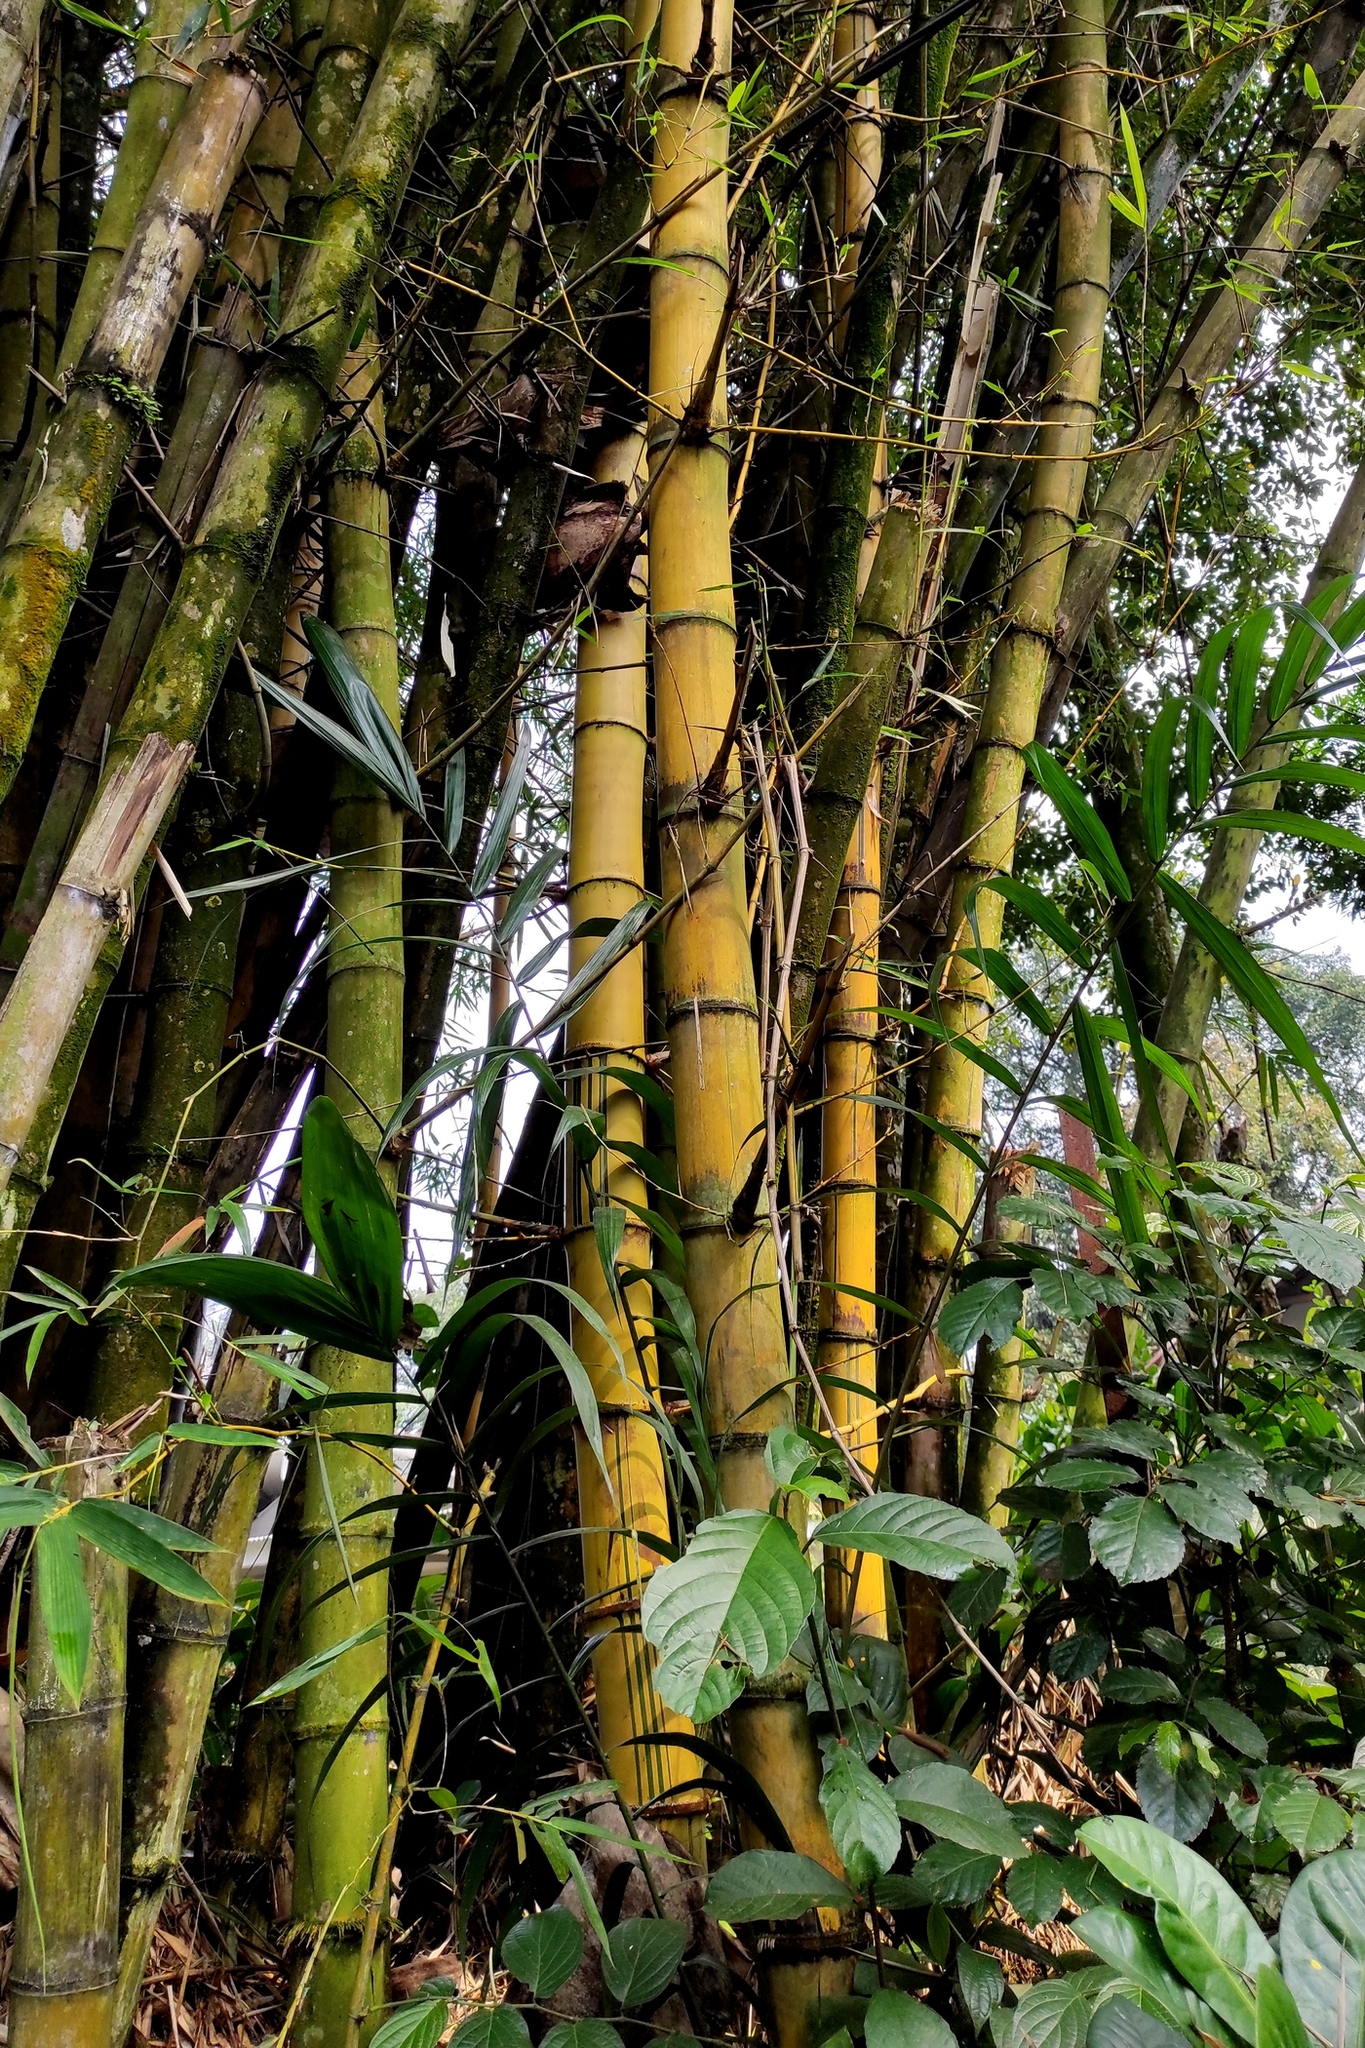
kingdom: Plantae
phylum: Tracheophyta
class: Liliopsida
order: Poales
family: Poaceae
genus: Bambusa
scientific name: Bambusa vulgaris
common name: Common bamboo
